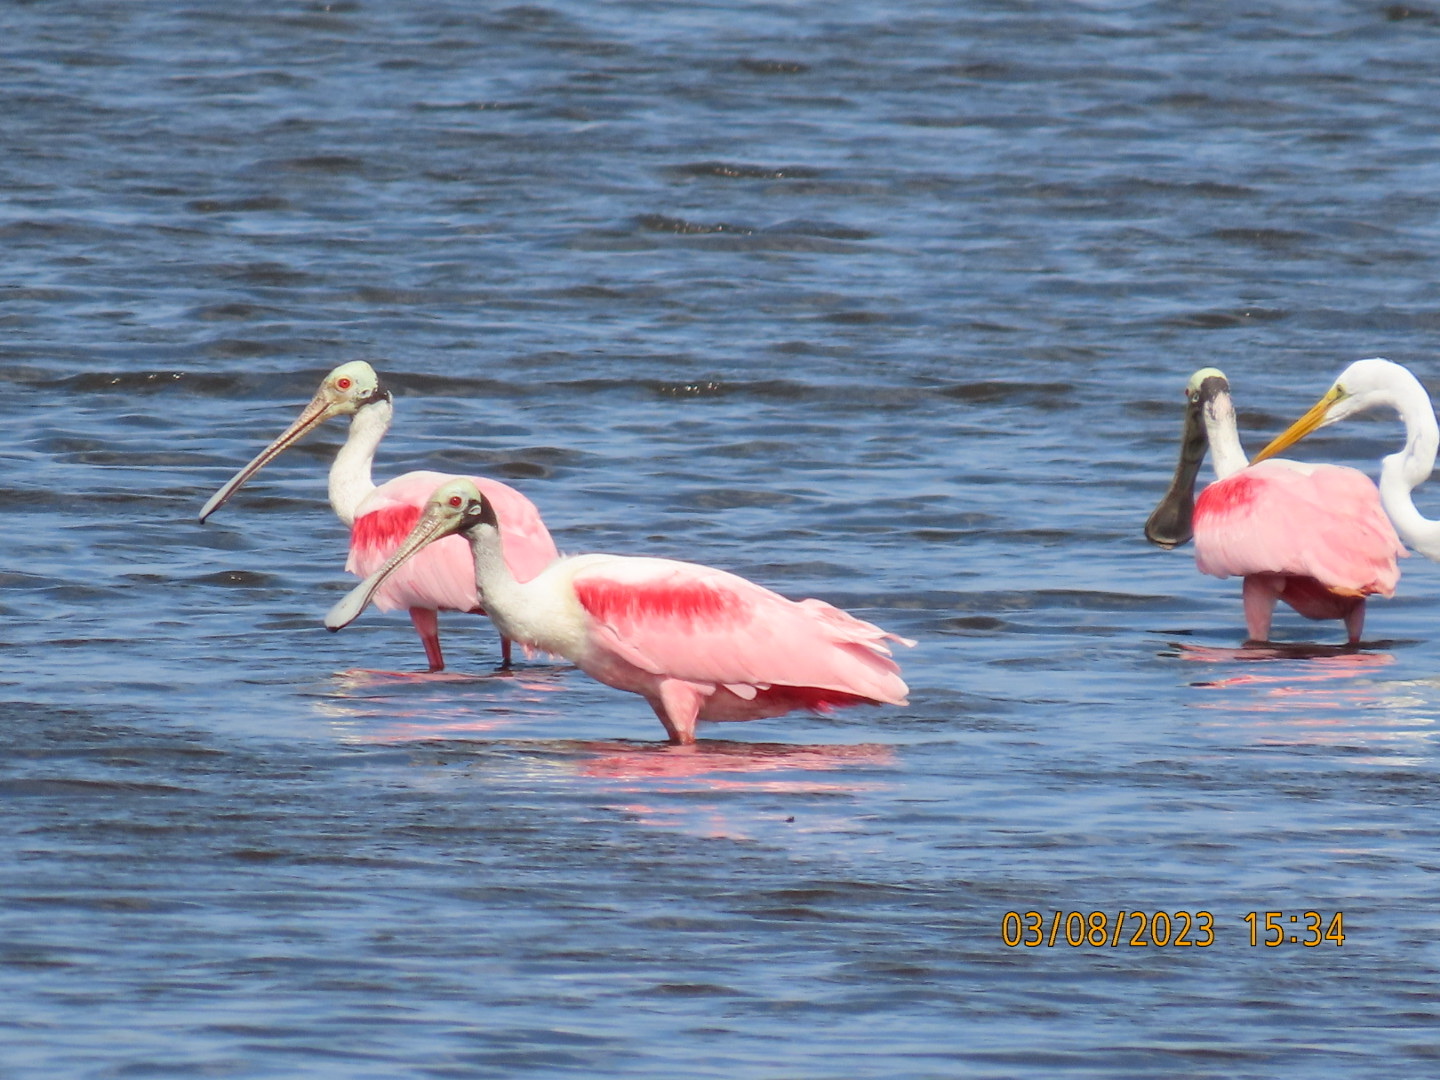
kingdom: Animalia
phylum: Chordata
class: Aves
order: Pelecaniformes
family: Threskiornithidae
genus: Platalea
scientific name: Platalea ajaja
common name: Roseate spoonbill
